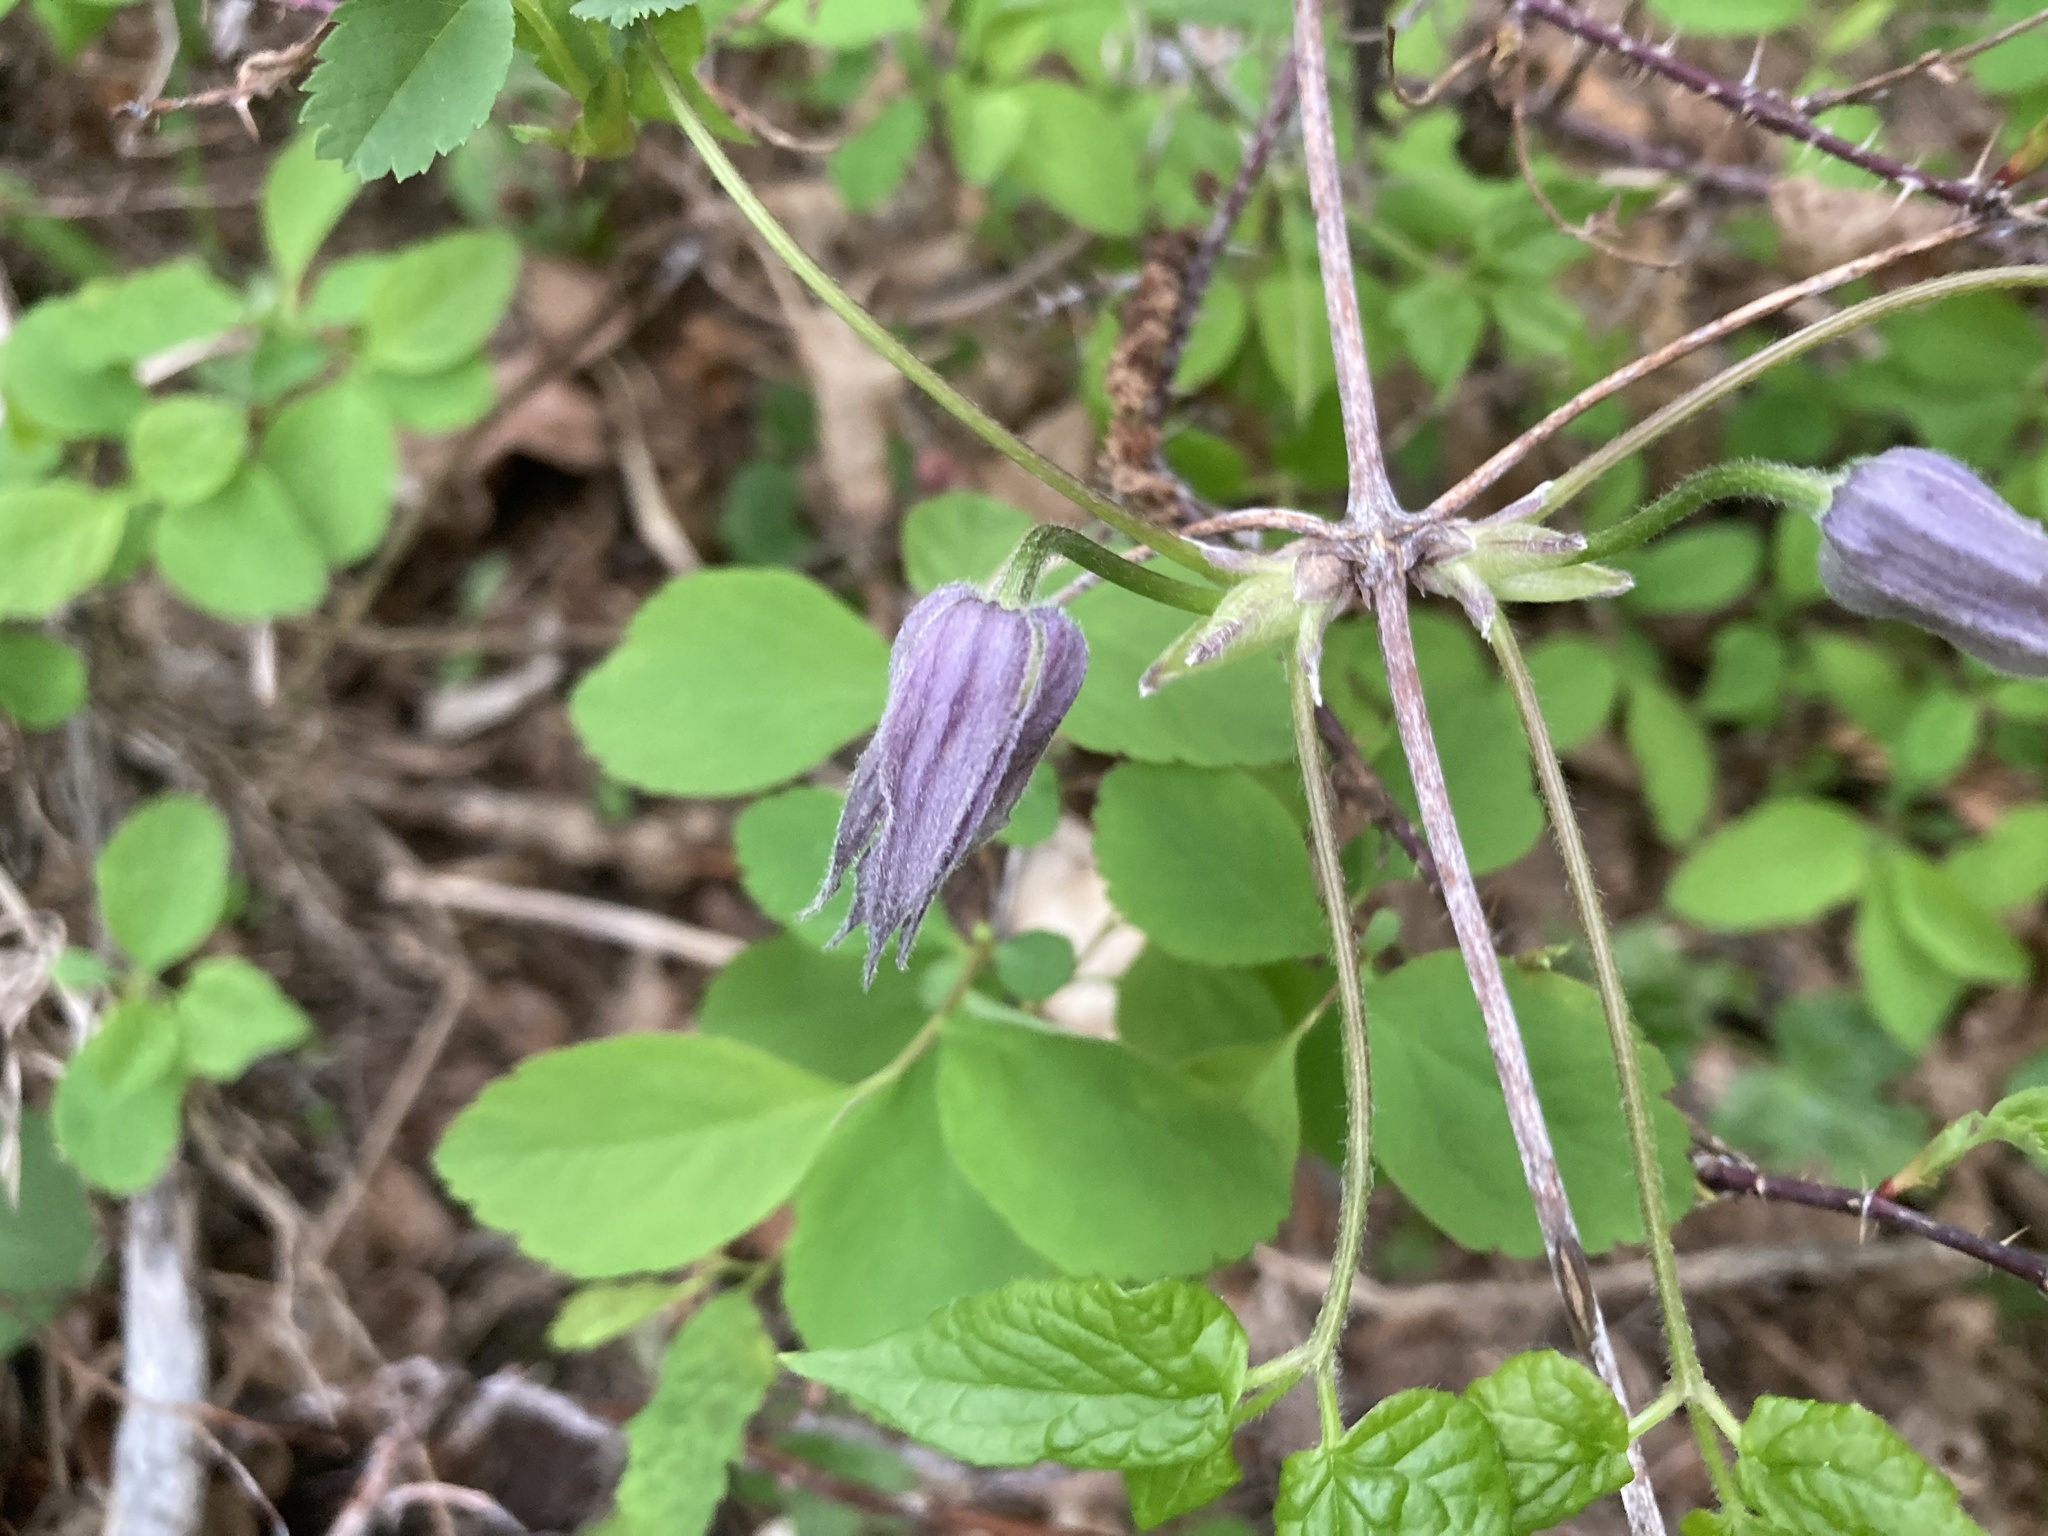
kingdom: Plantae
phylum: Tracheophyta
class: Magnoliopsida
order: Ranunculales
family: Ranunculaceae
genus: Clematis
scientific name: Clematis occidentalis
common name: Purple clematis
